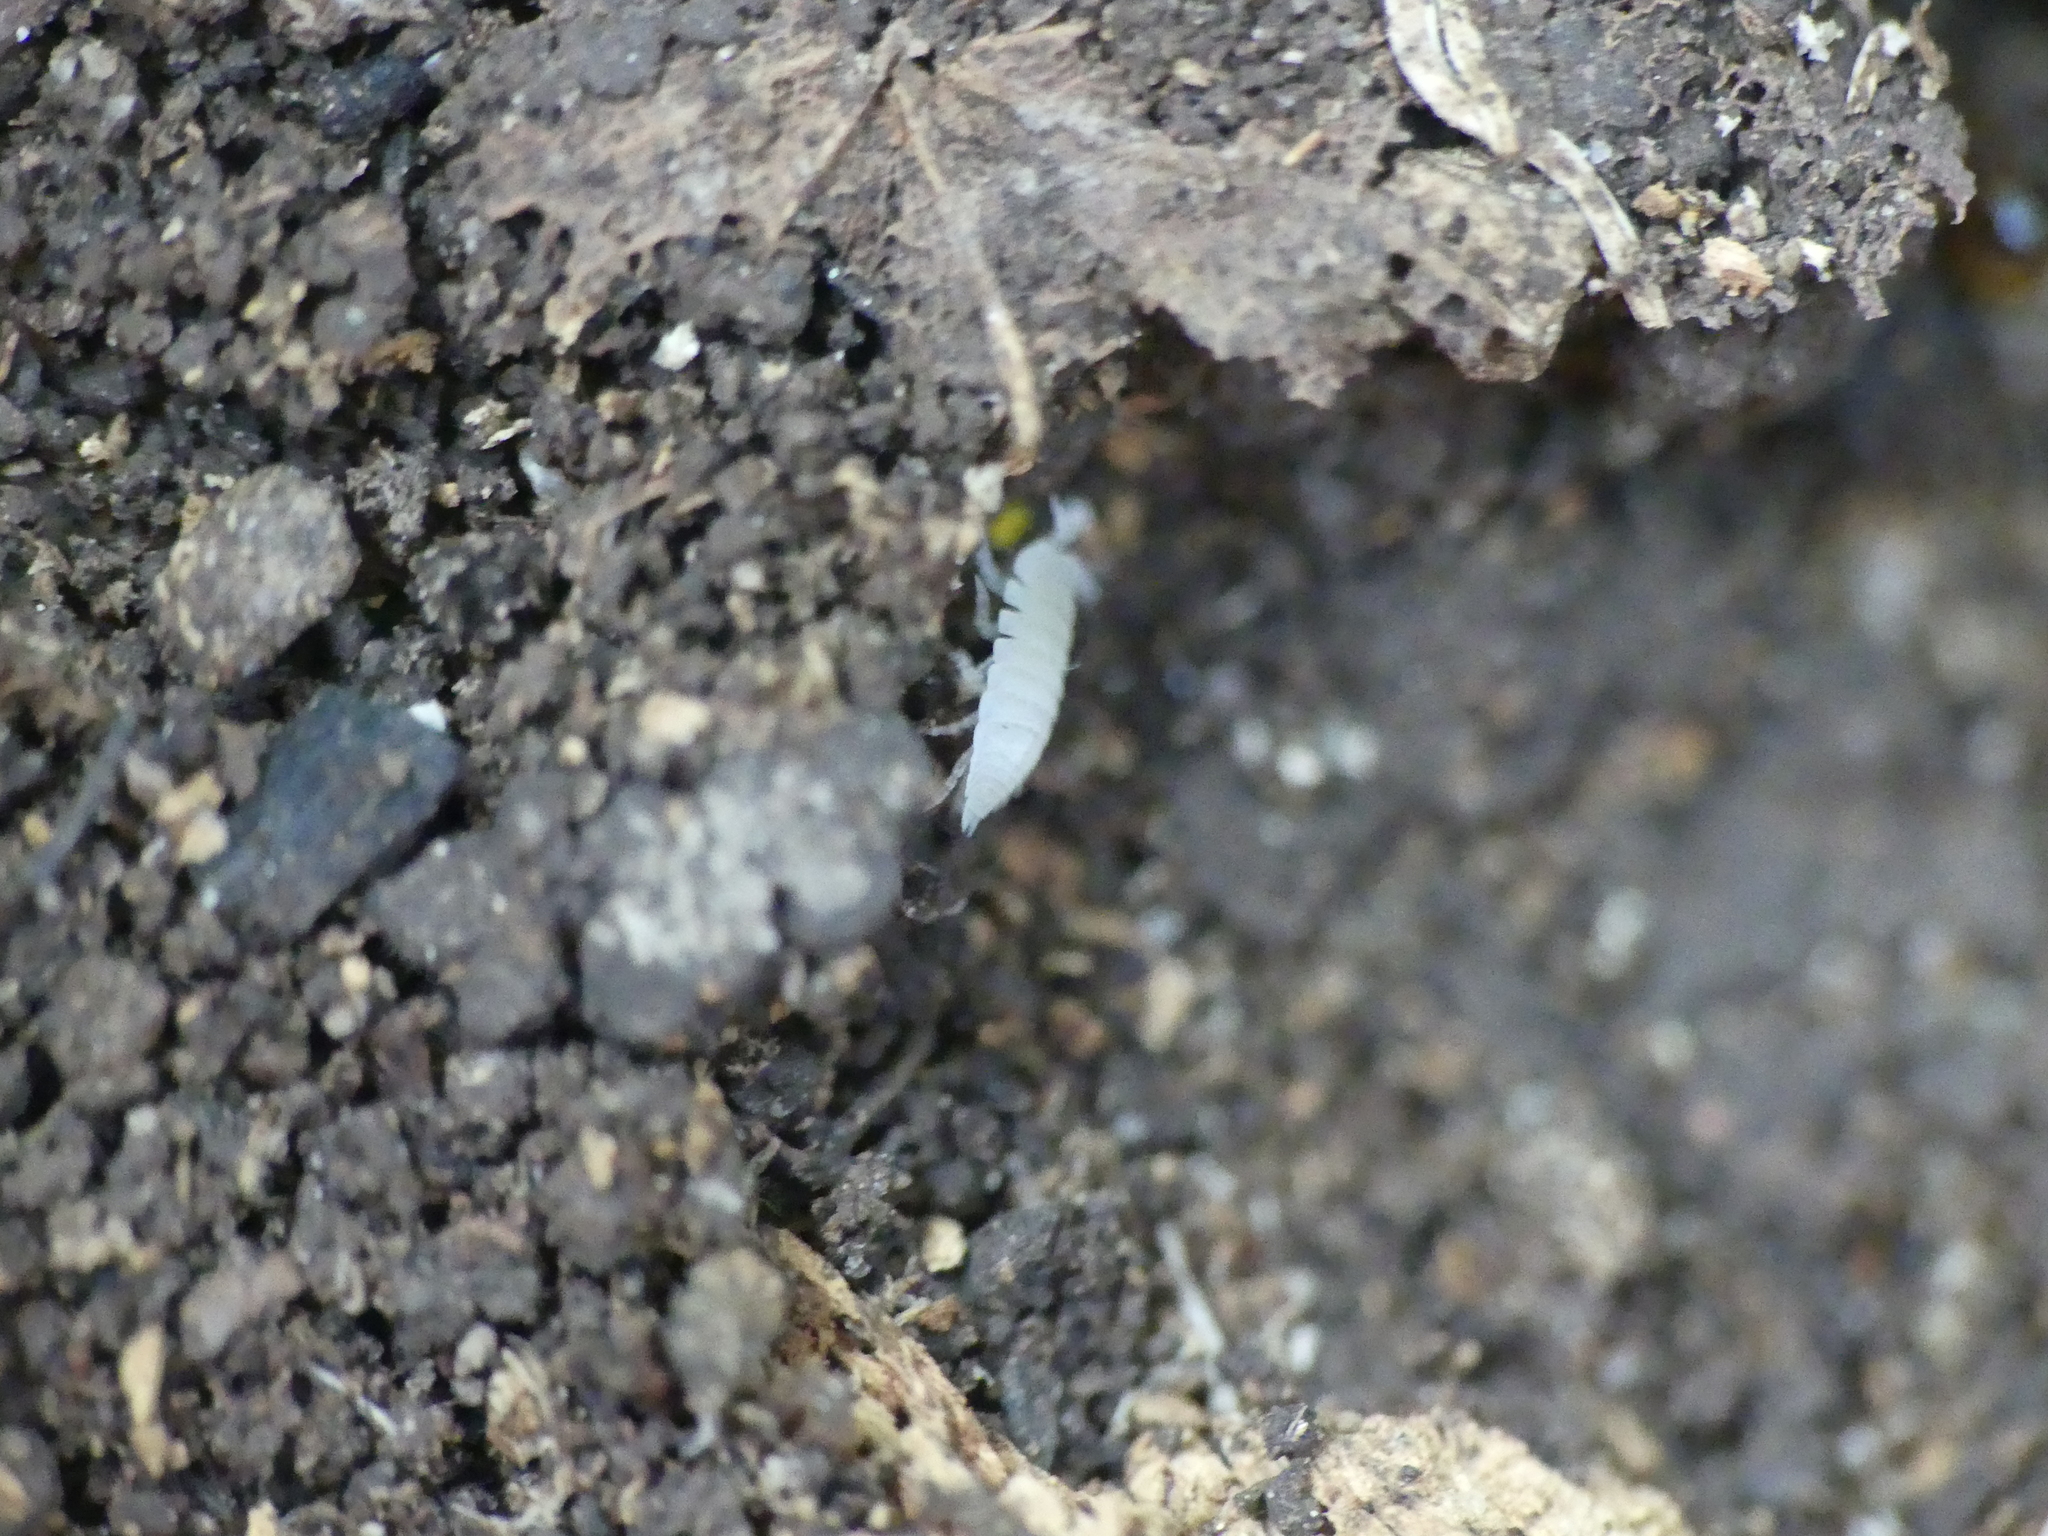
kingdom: Animalia
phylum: Arthropoda
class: Malacostraca
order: Isopoda
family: Platyarthridae
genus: Platyarthrus
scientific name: Platyarthrus hoffmannseggii
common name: Ant woodlouse
